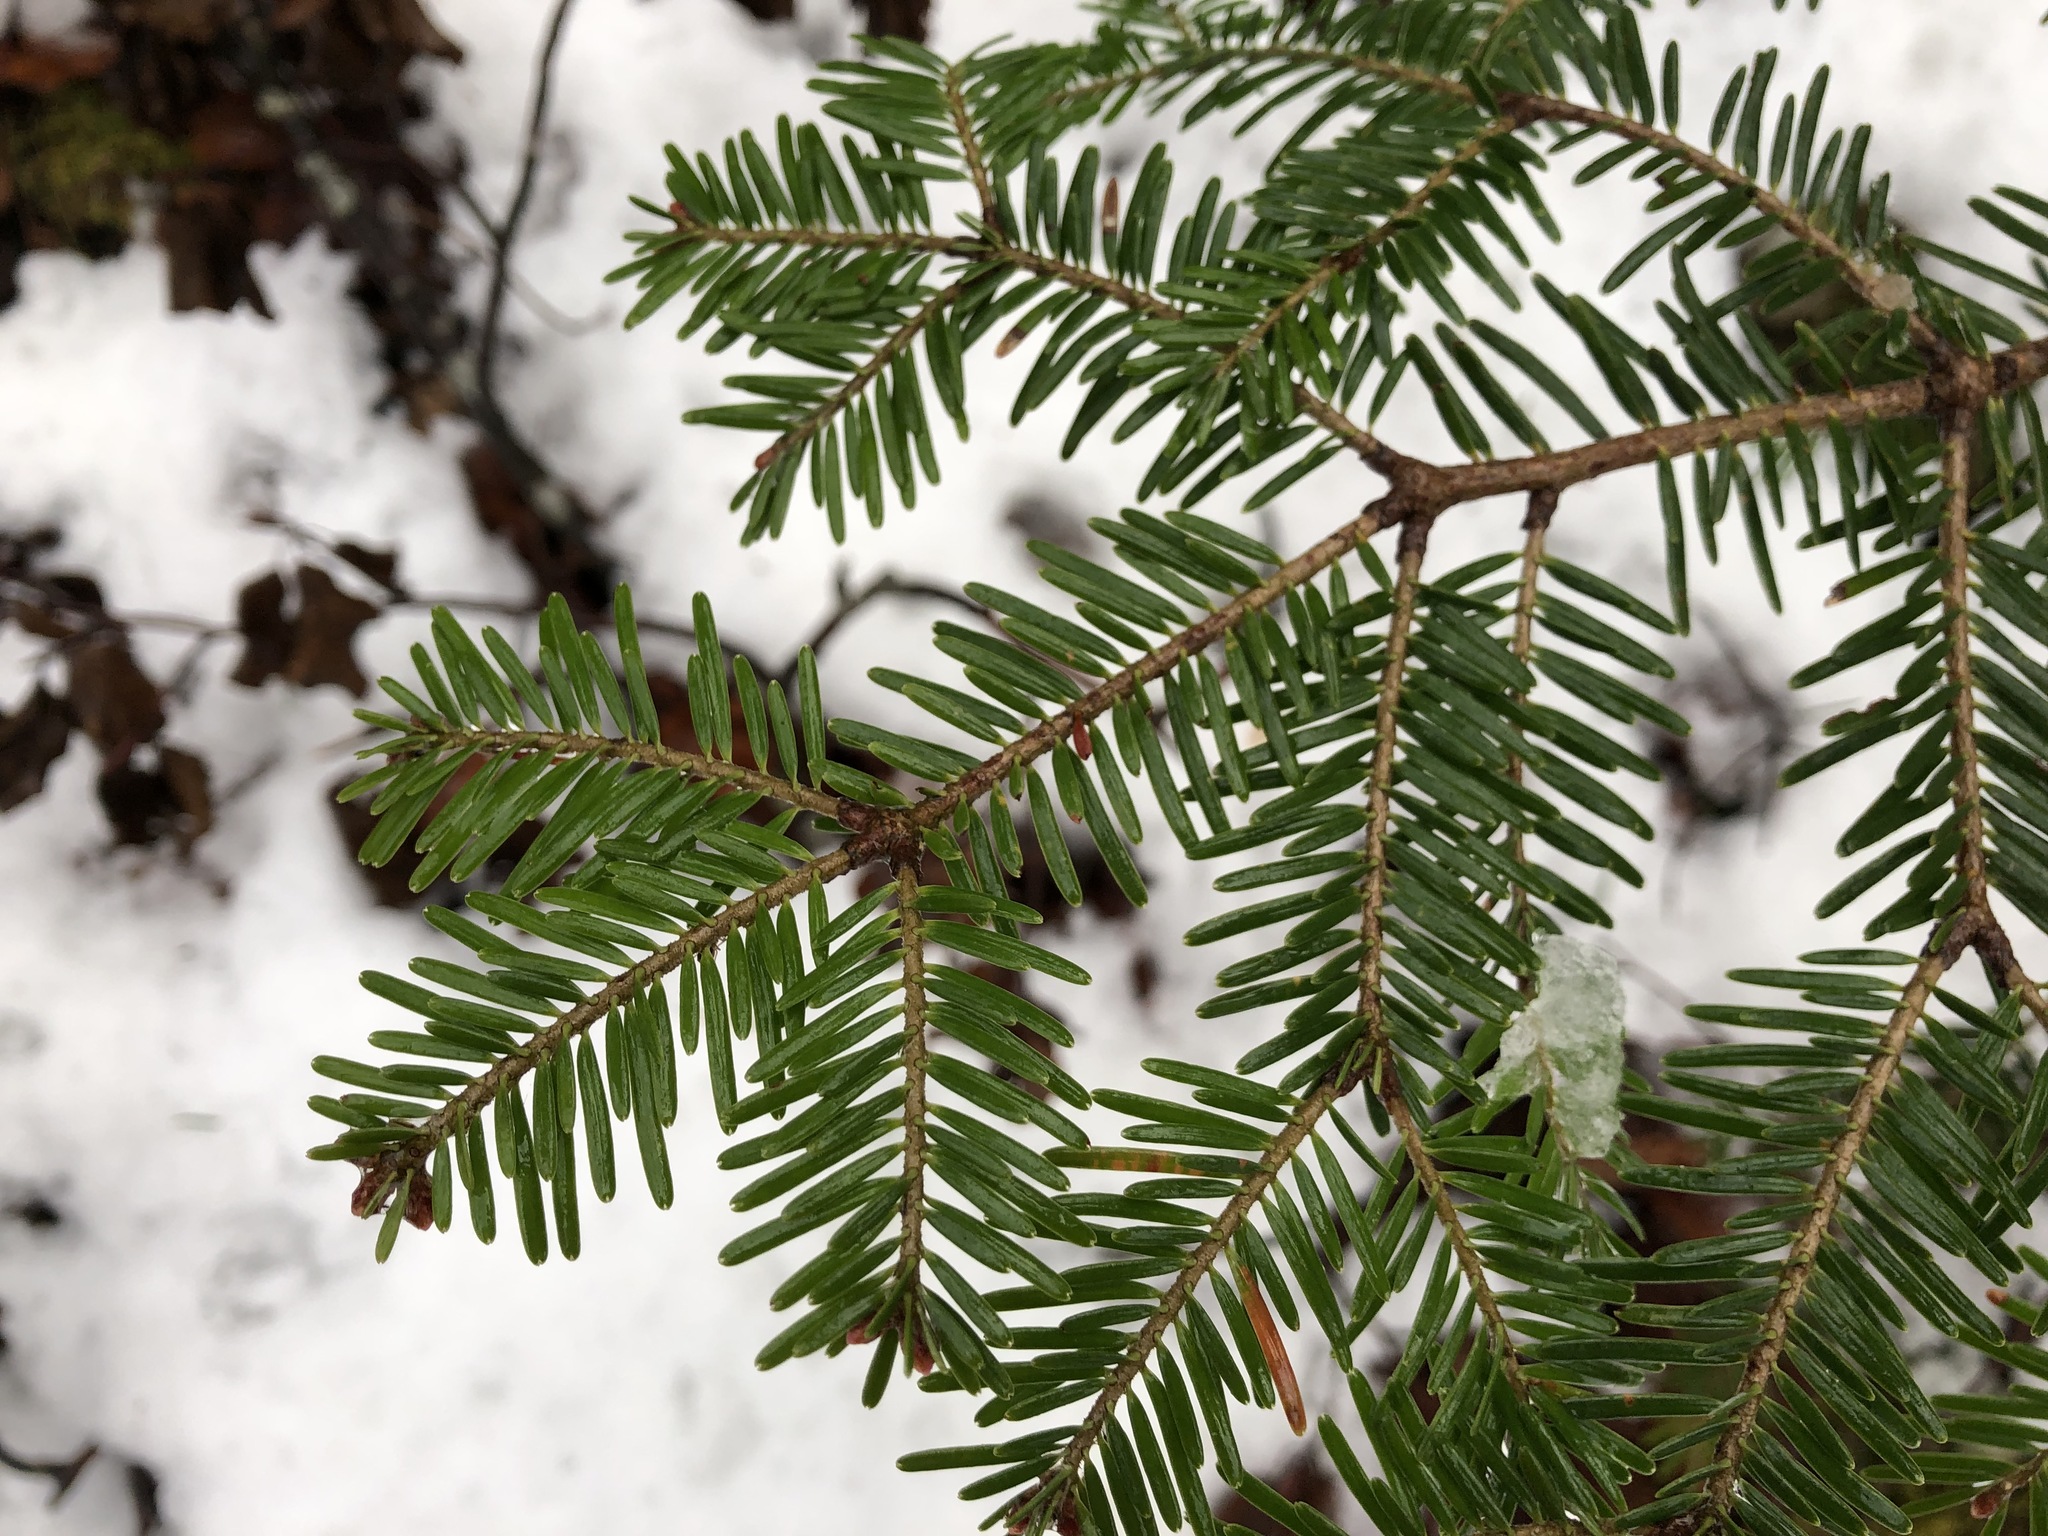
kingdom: Plantae
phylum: Tracheophyta
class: Pinopsida
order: Pinales
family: Pinaceae
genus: Abies
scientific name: Abies alba
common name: Silver fir
